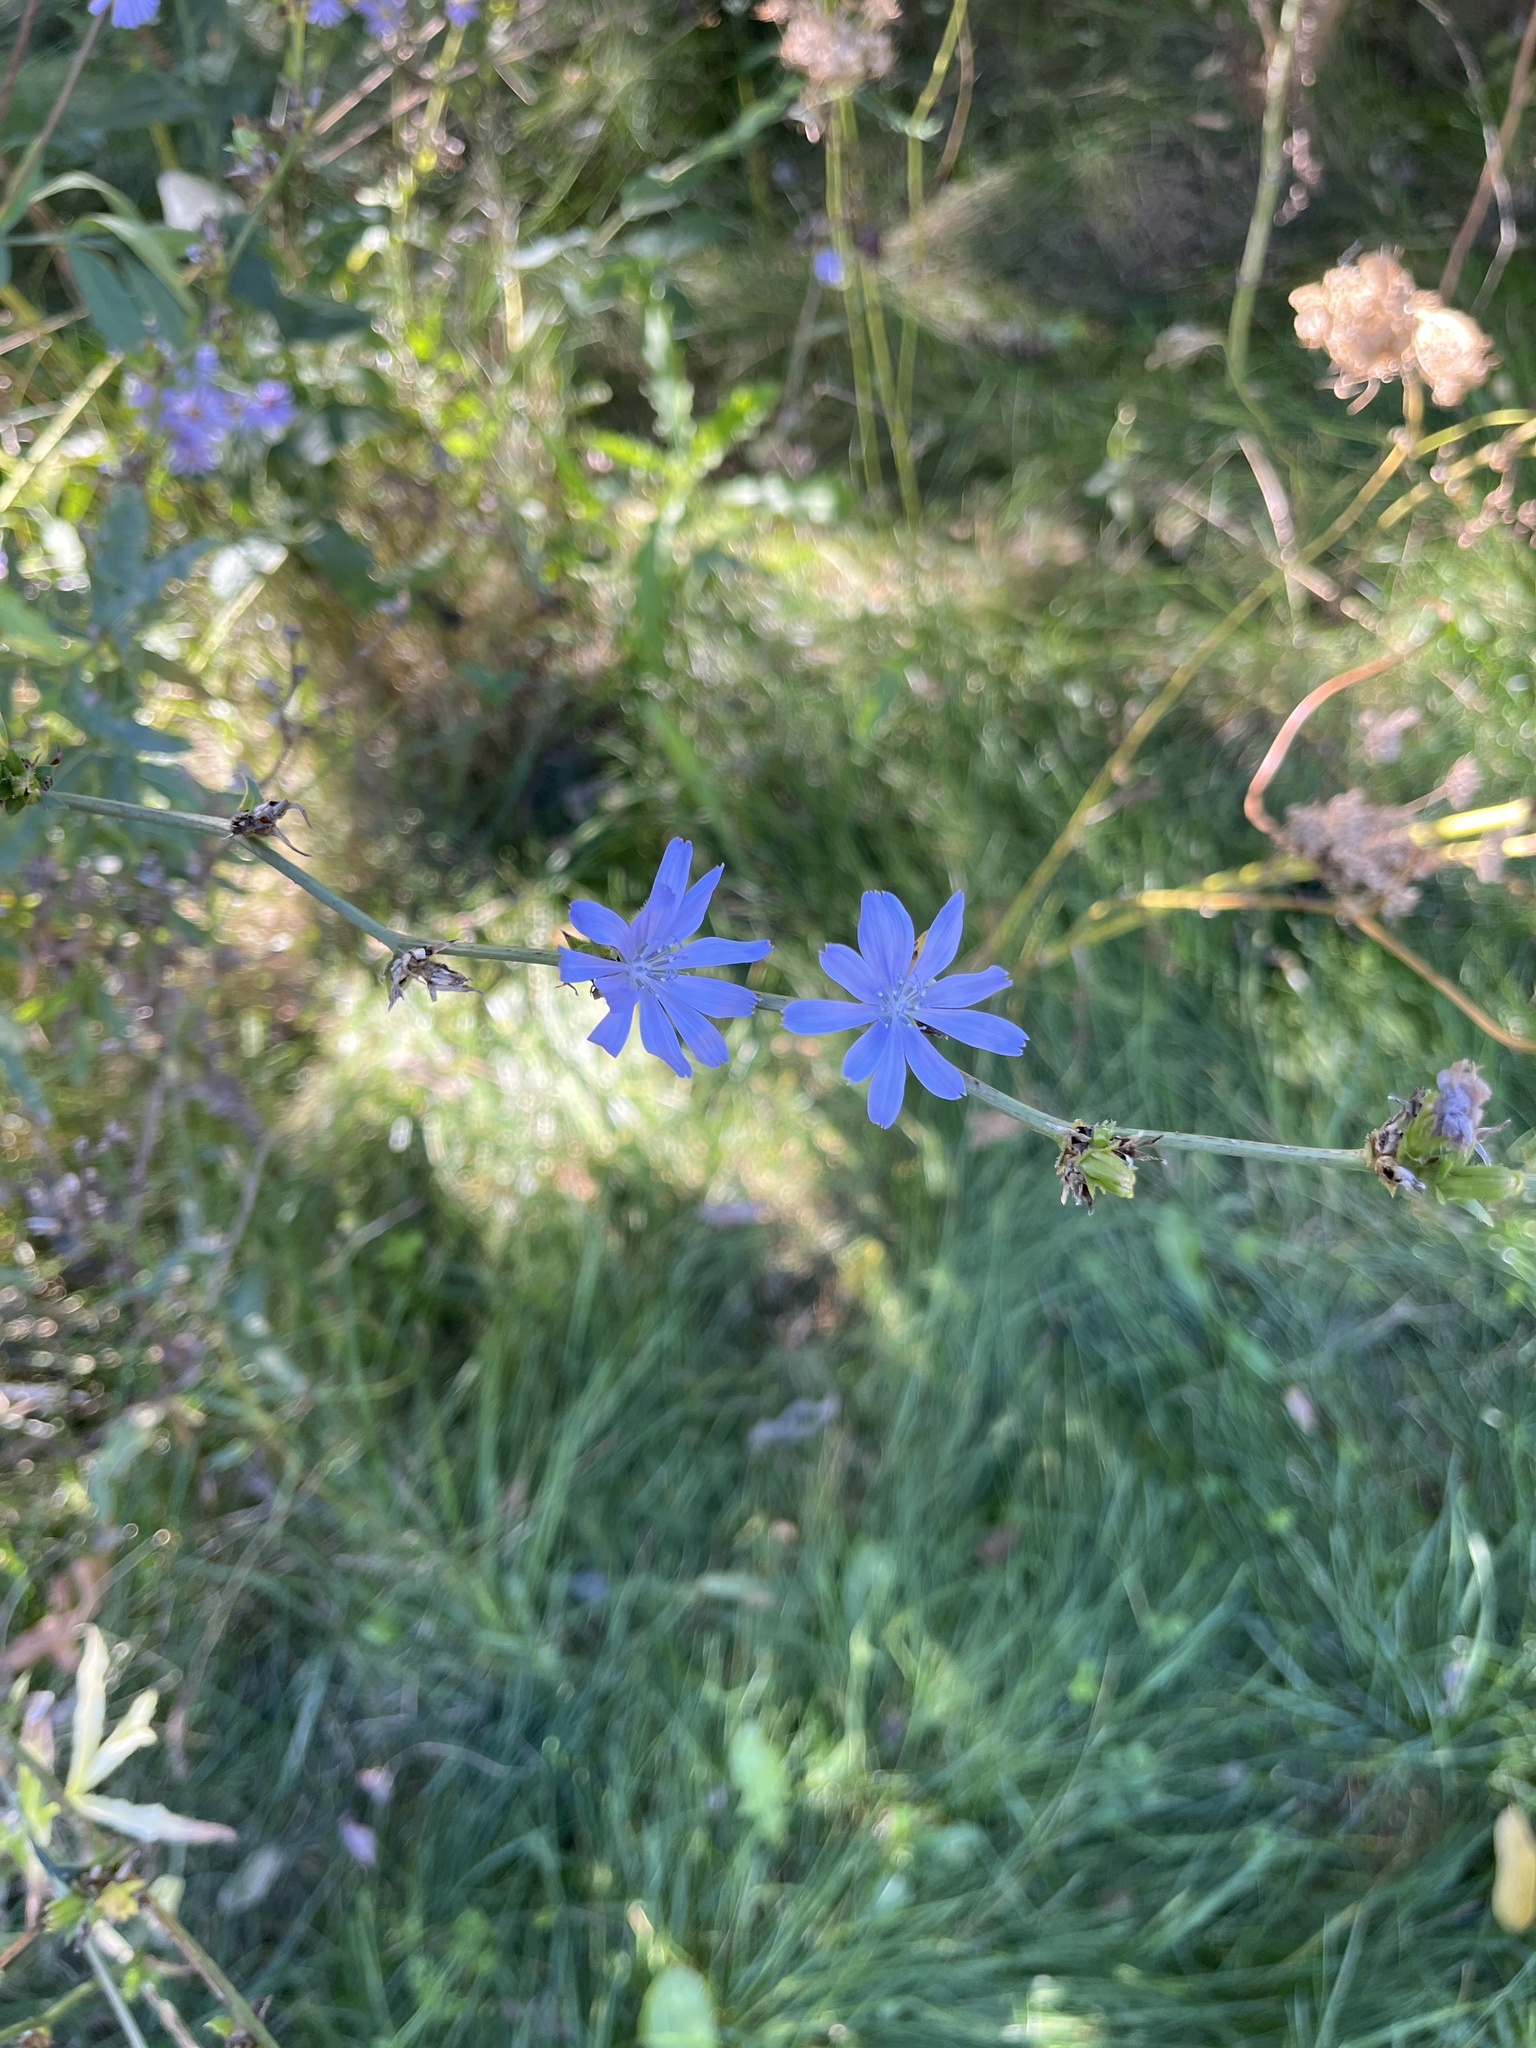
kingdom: Plantae
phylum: Tracheophyta
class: Magnoliopsida
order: Asterales
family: Asteraceae
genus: Cichorium
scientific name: Cichorium intybus
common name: Chicory
